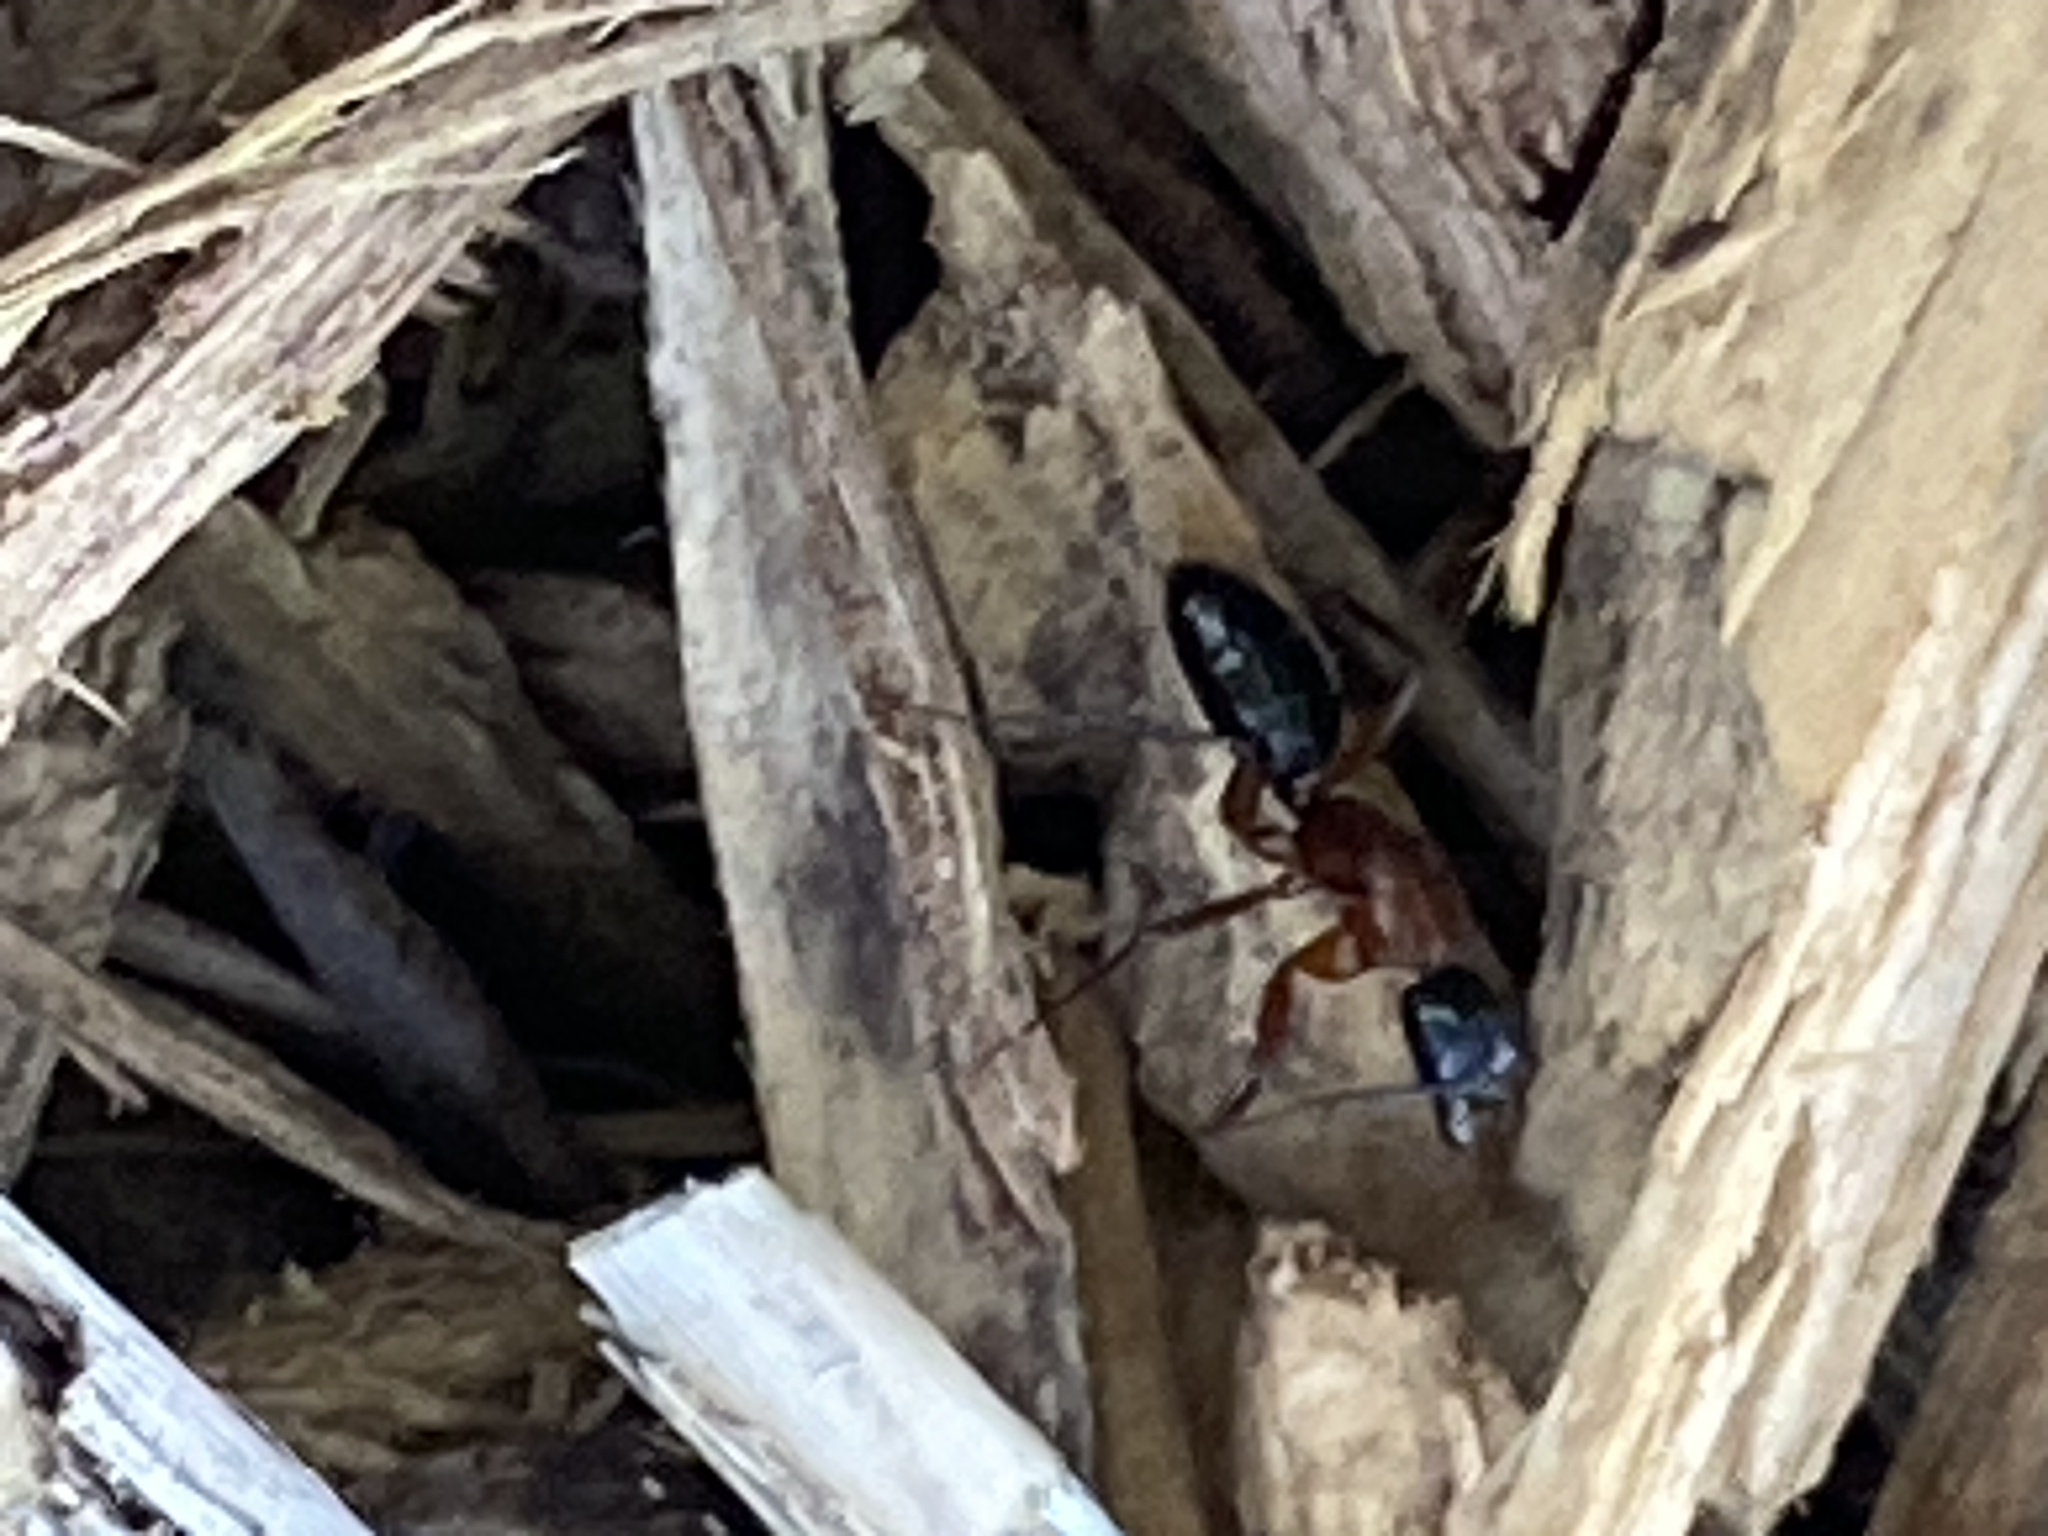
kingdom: Animalia
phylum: Arthropoda
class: Insecta
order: Hymenoptera
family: Formicidae
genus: Camponotus
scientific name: Camponotus texanus
